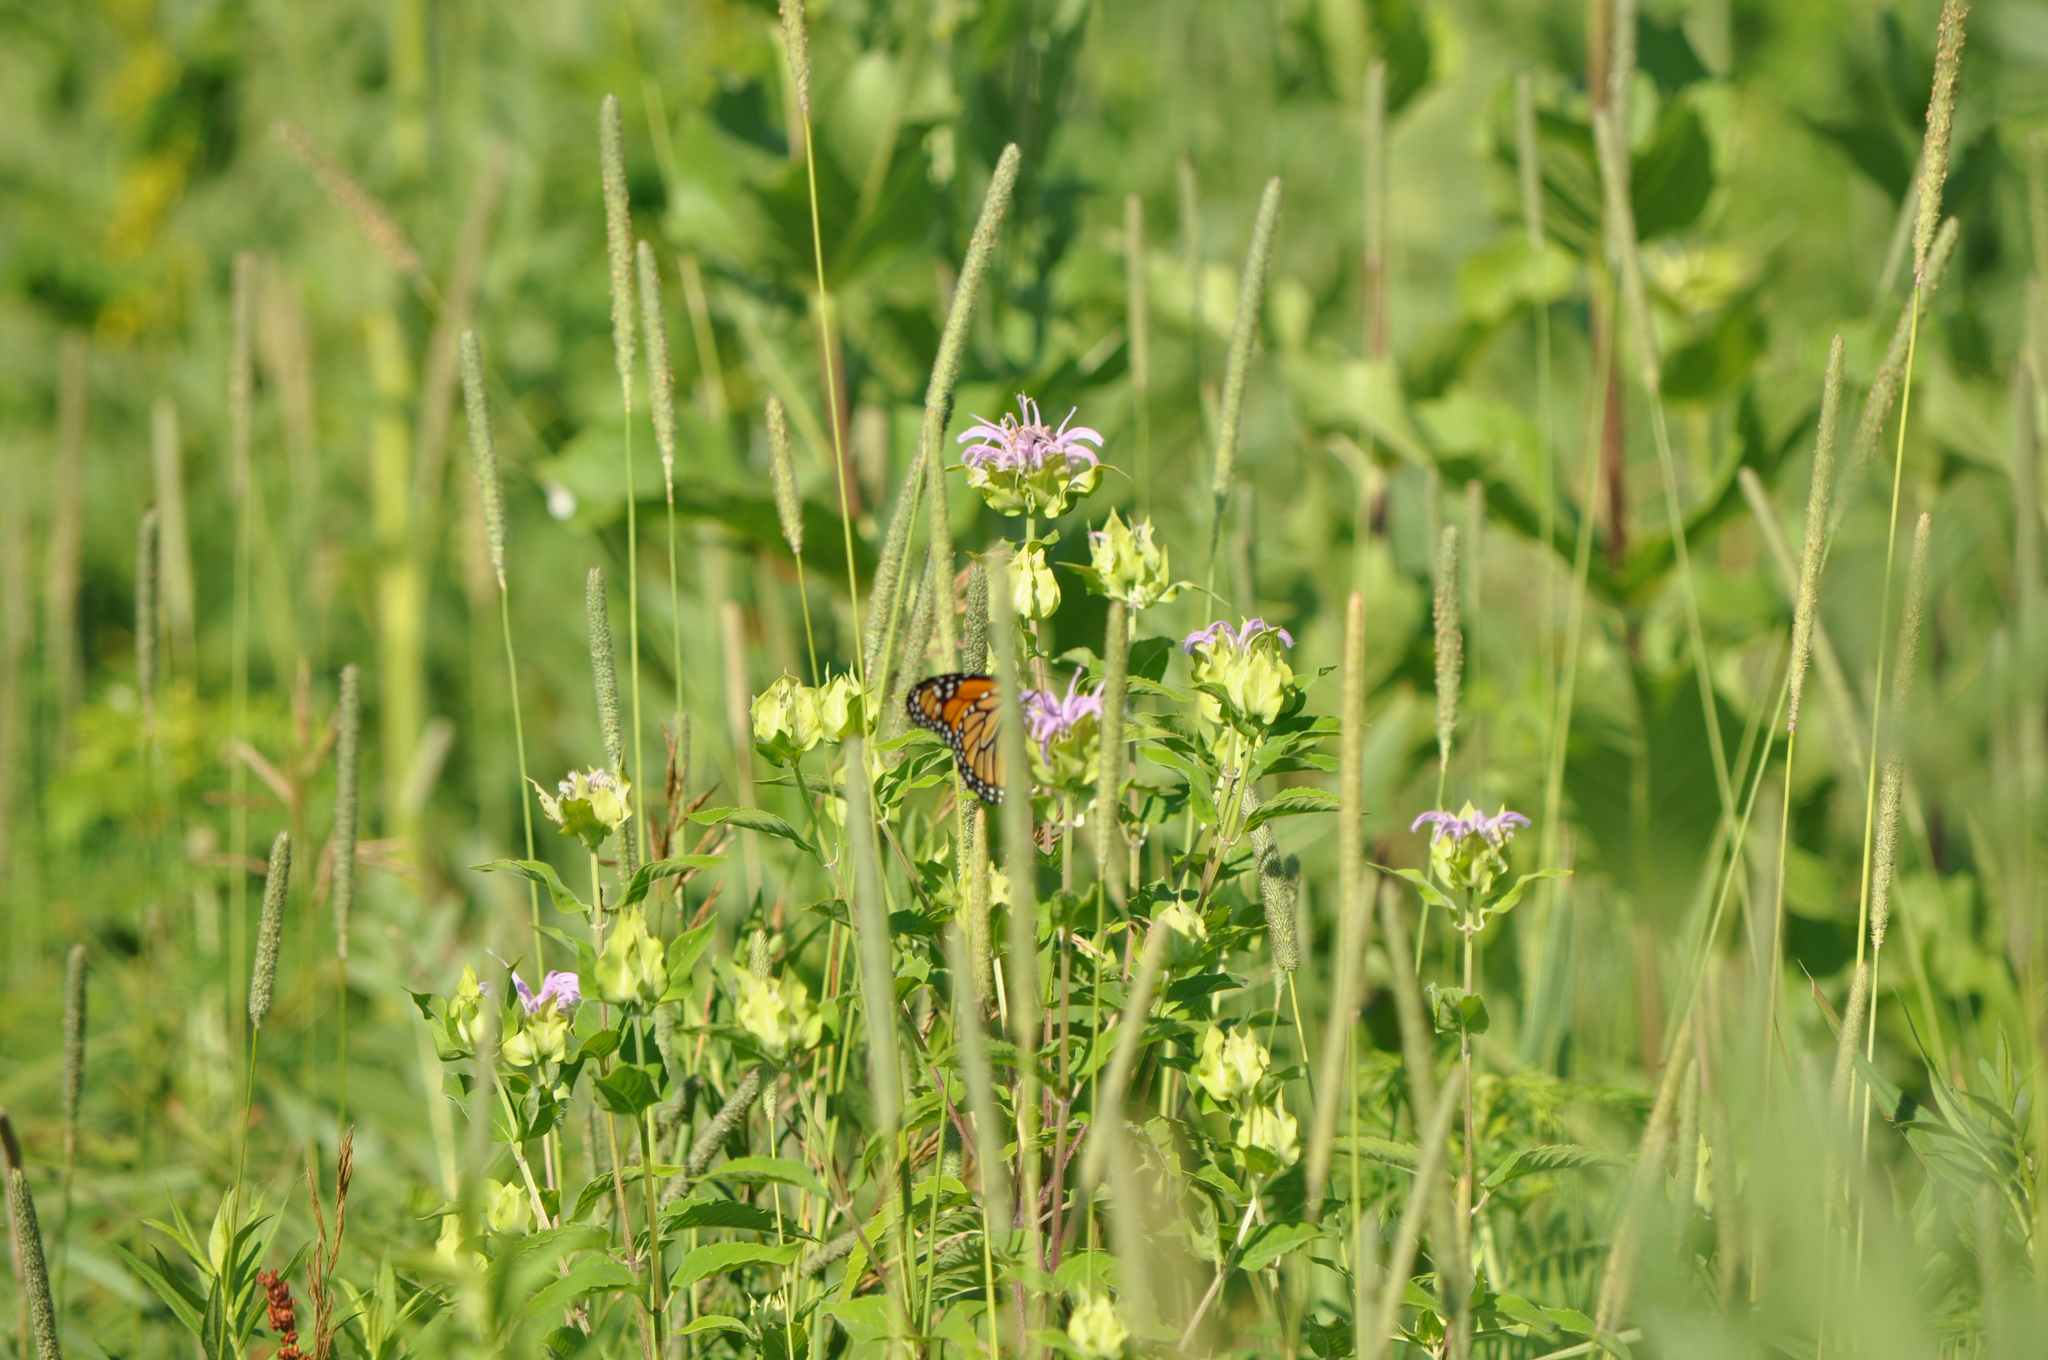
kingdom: Animalia
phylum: Arthropoda
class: Insecta
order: Lepidoptera
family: Nymphalidae
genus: Danaus
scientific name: Danaus plexippus
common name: Monarch
